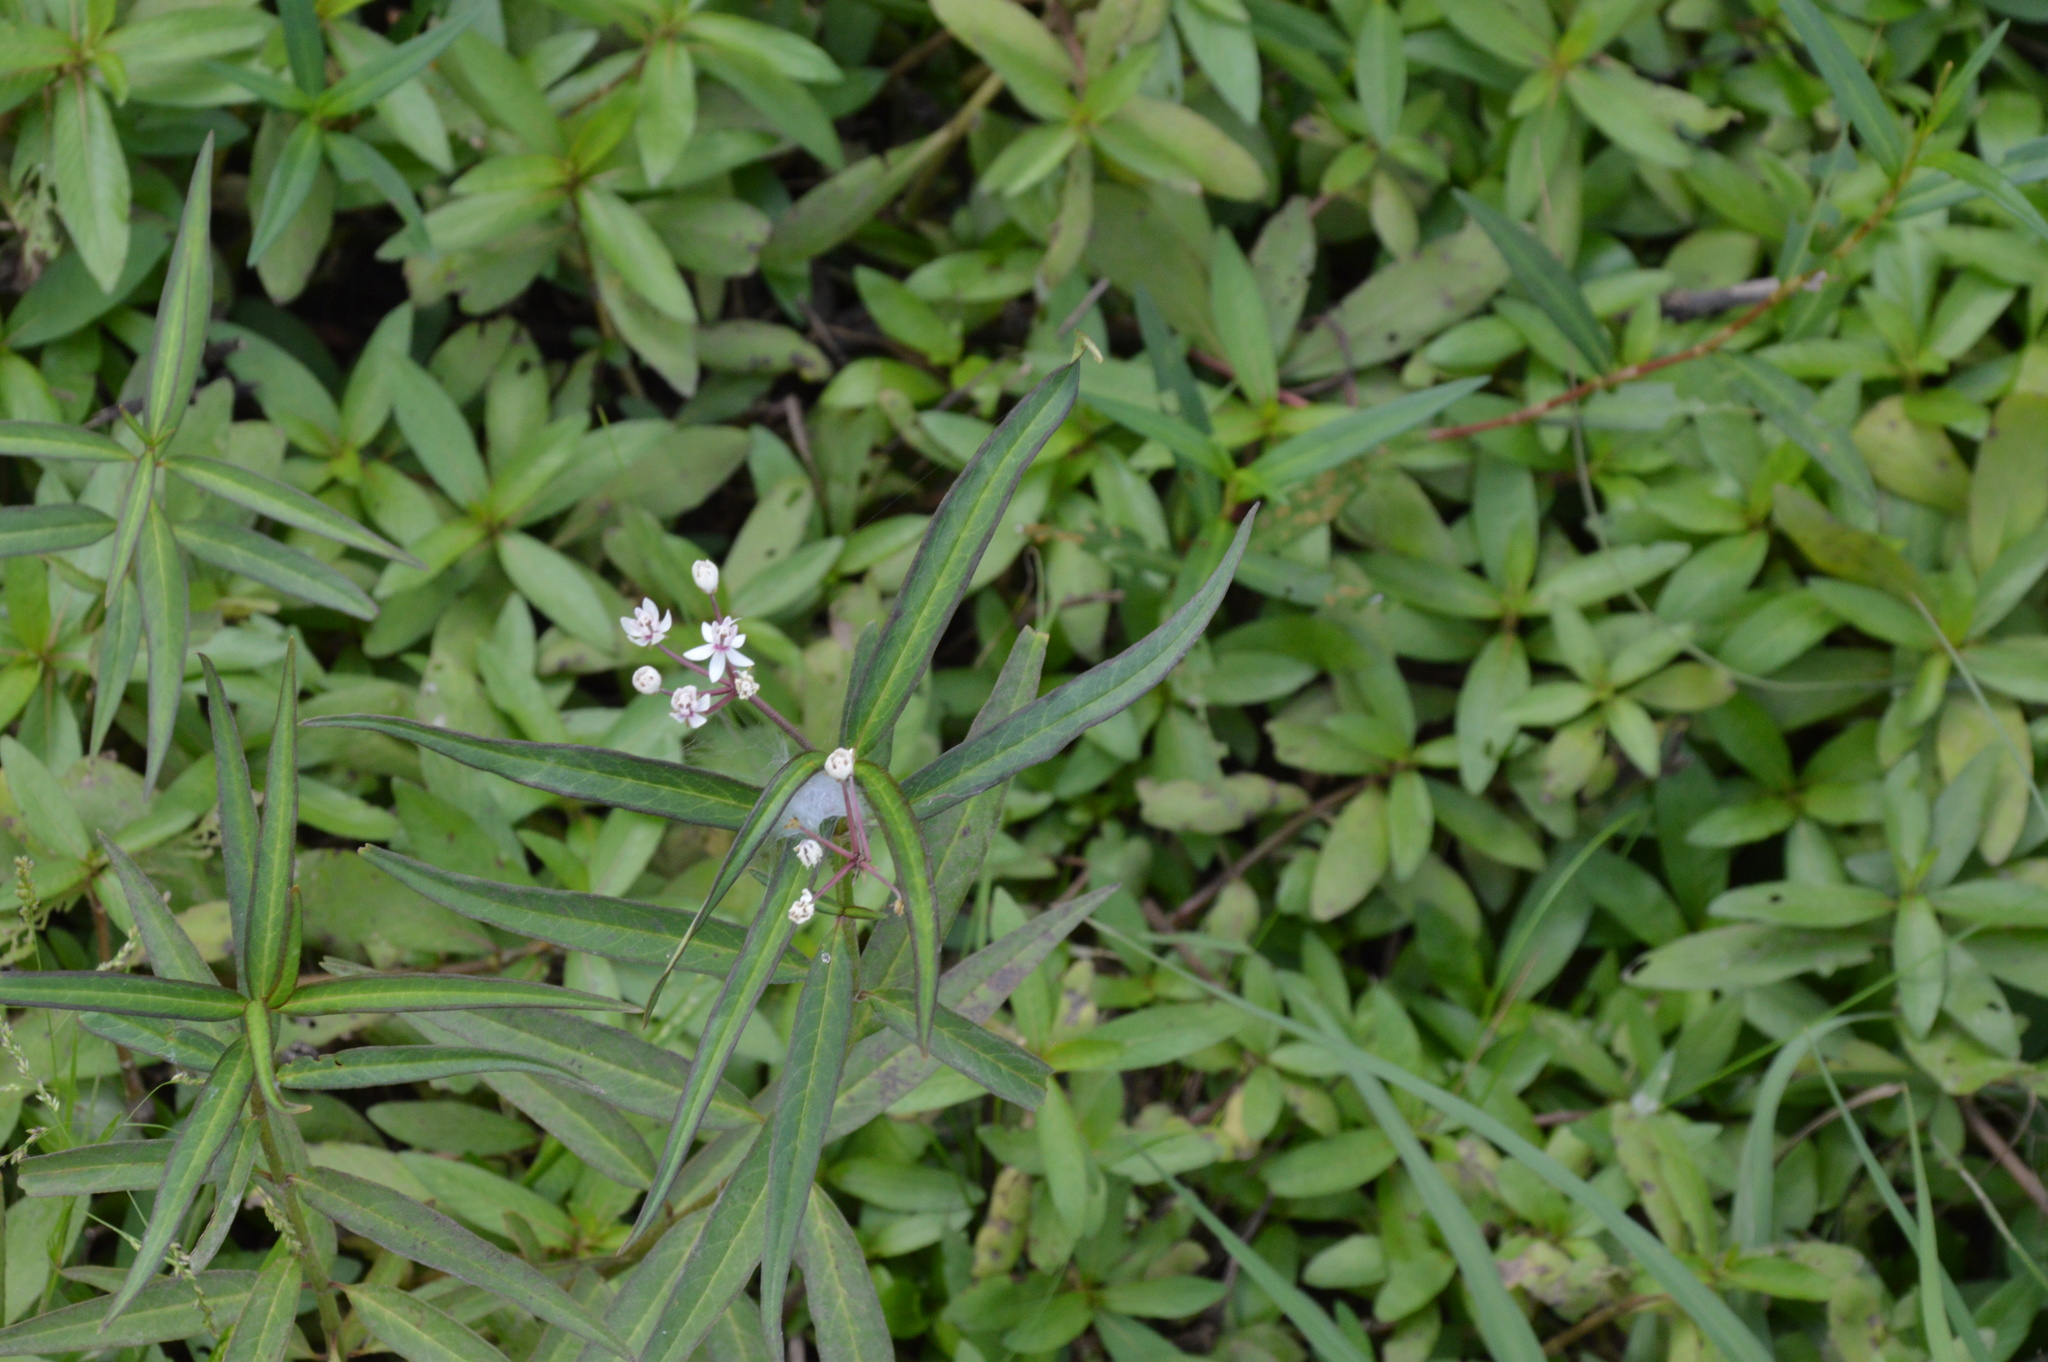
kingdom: Plantae
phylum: Tracheophyta
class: Magnoliopsida
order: Gentianales
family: Apocynaceae
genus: Asclepias
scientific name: Asclepias perennis
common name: Smooth-seed milkweed
